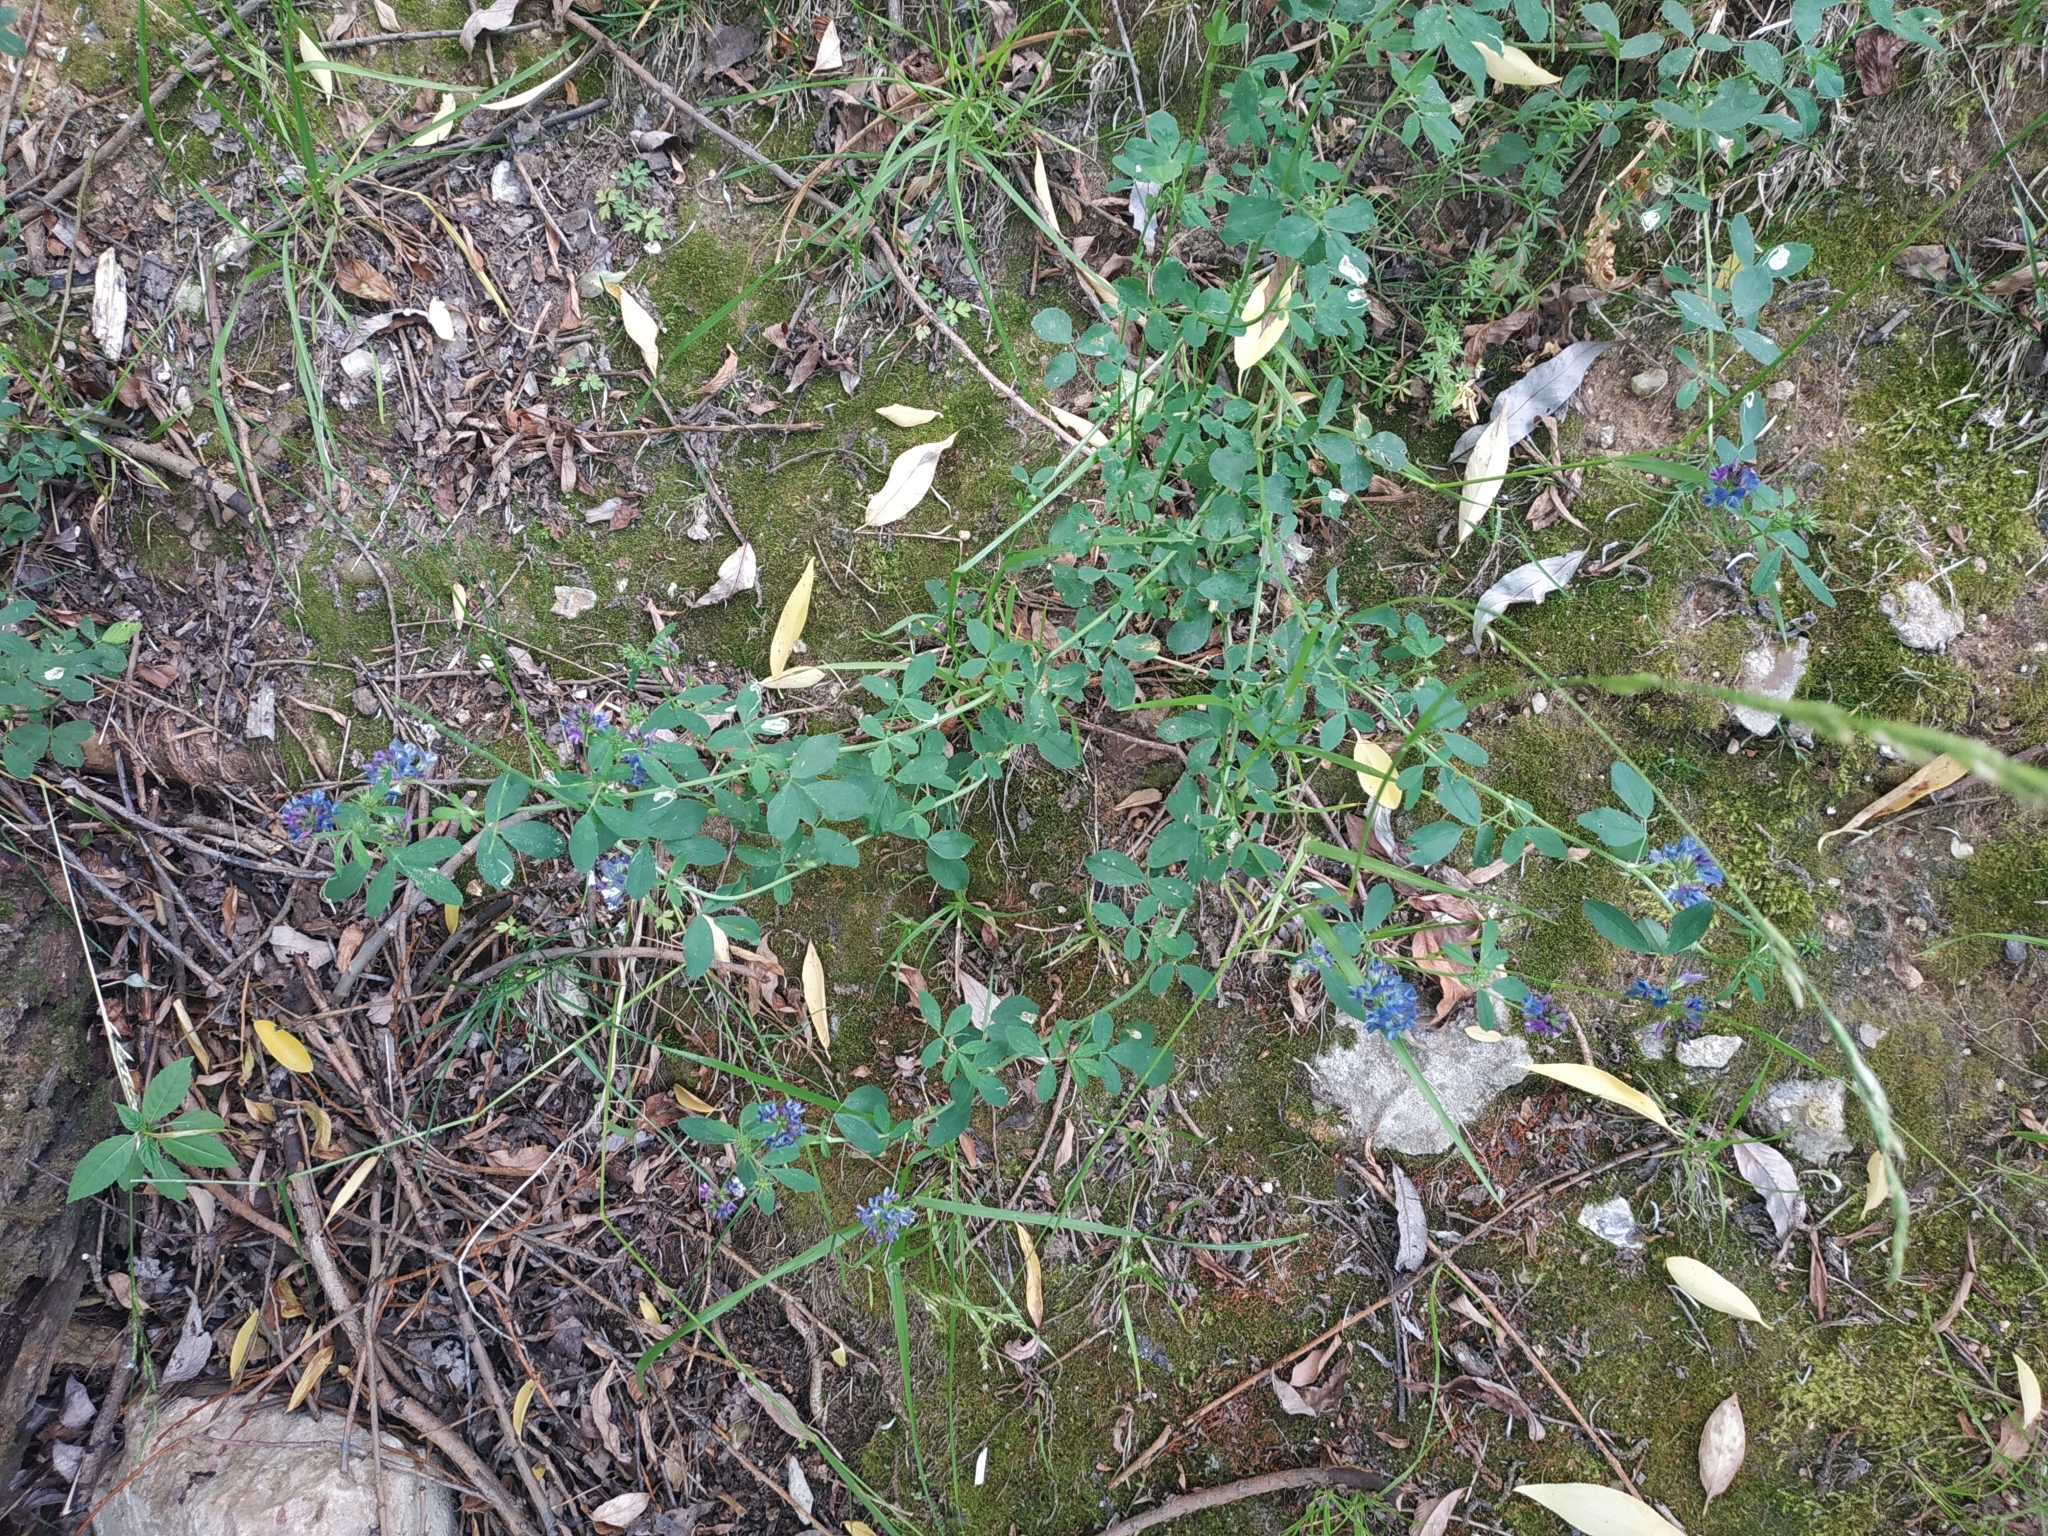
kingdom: Plantae
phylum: Tracheophyta
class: Magnoliopsida
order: Fabales
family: Fabaceae
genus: Medicago
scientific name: Medicago varia
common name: Sand lucerne
